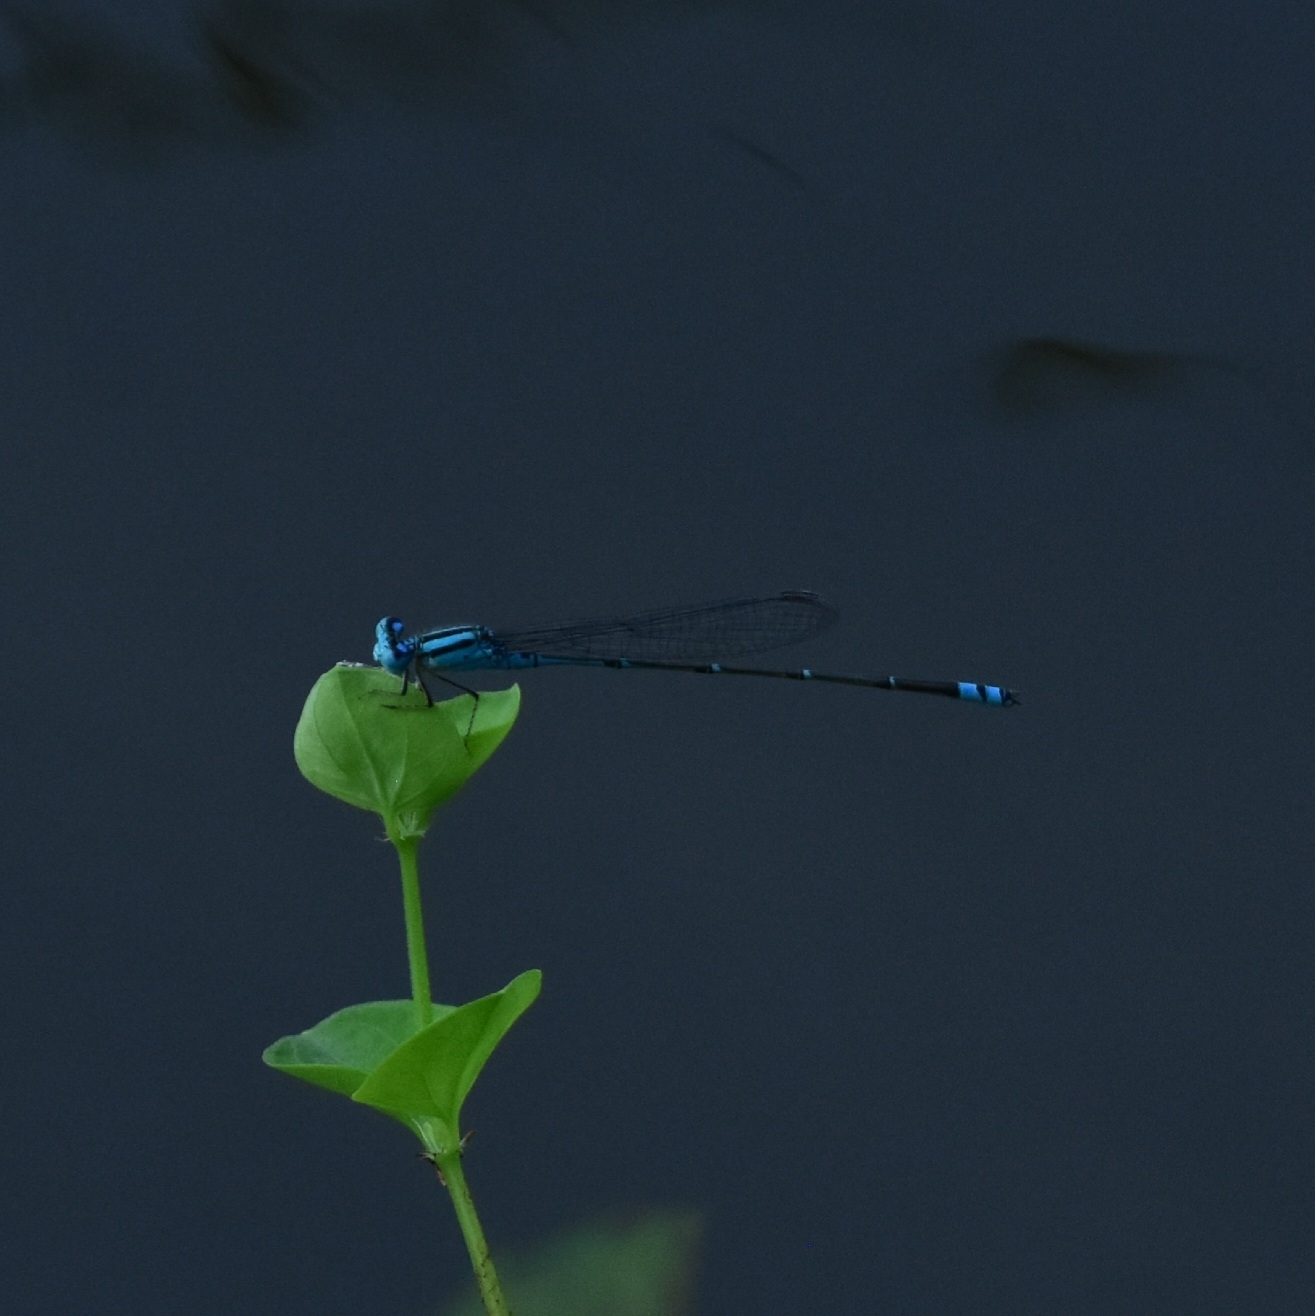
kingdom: Animalia
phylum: Arthropoda
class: Insecta
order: Odonata
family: Coenagrionidae
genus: Pseudagrion
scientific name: Pseudagrion microcephalum
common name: Blue riverdamsel
